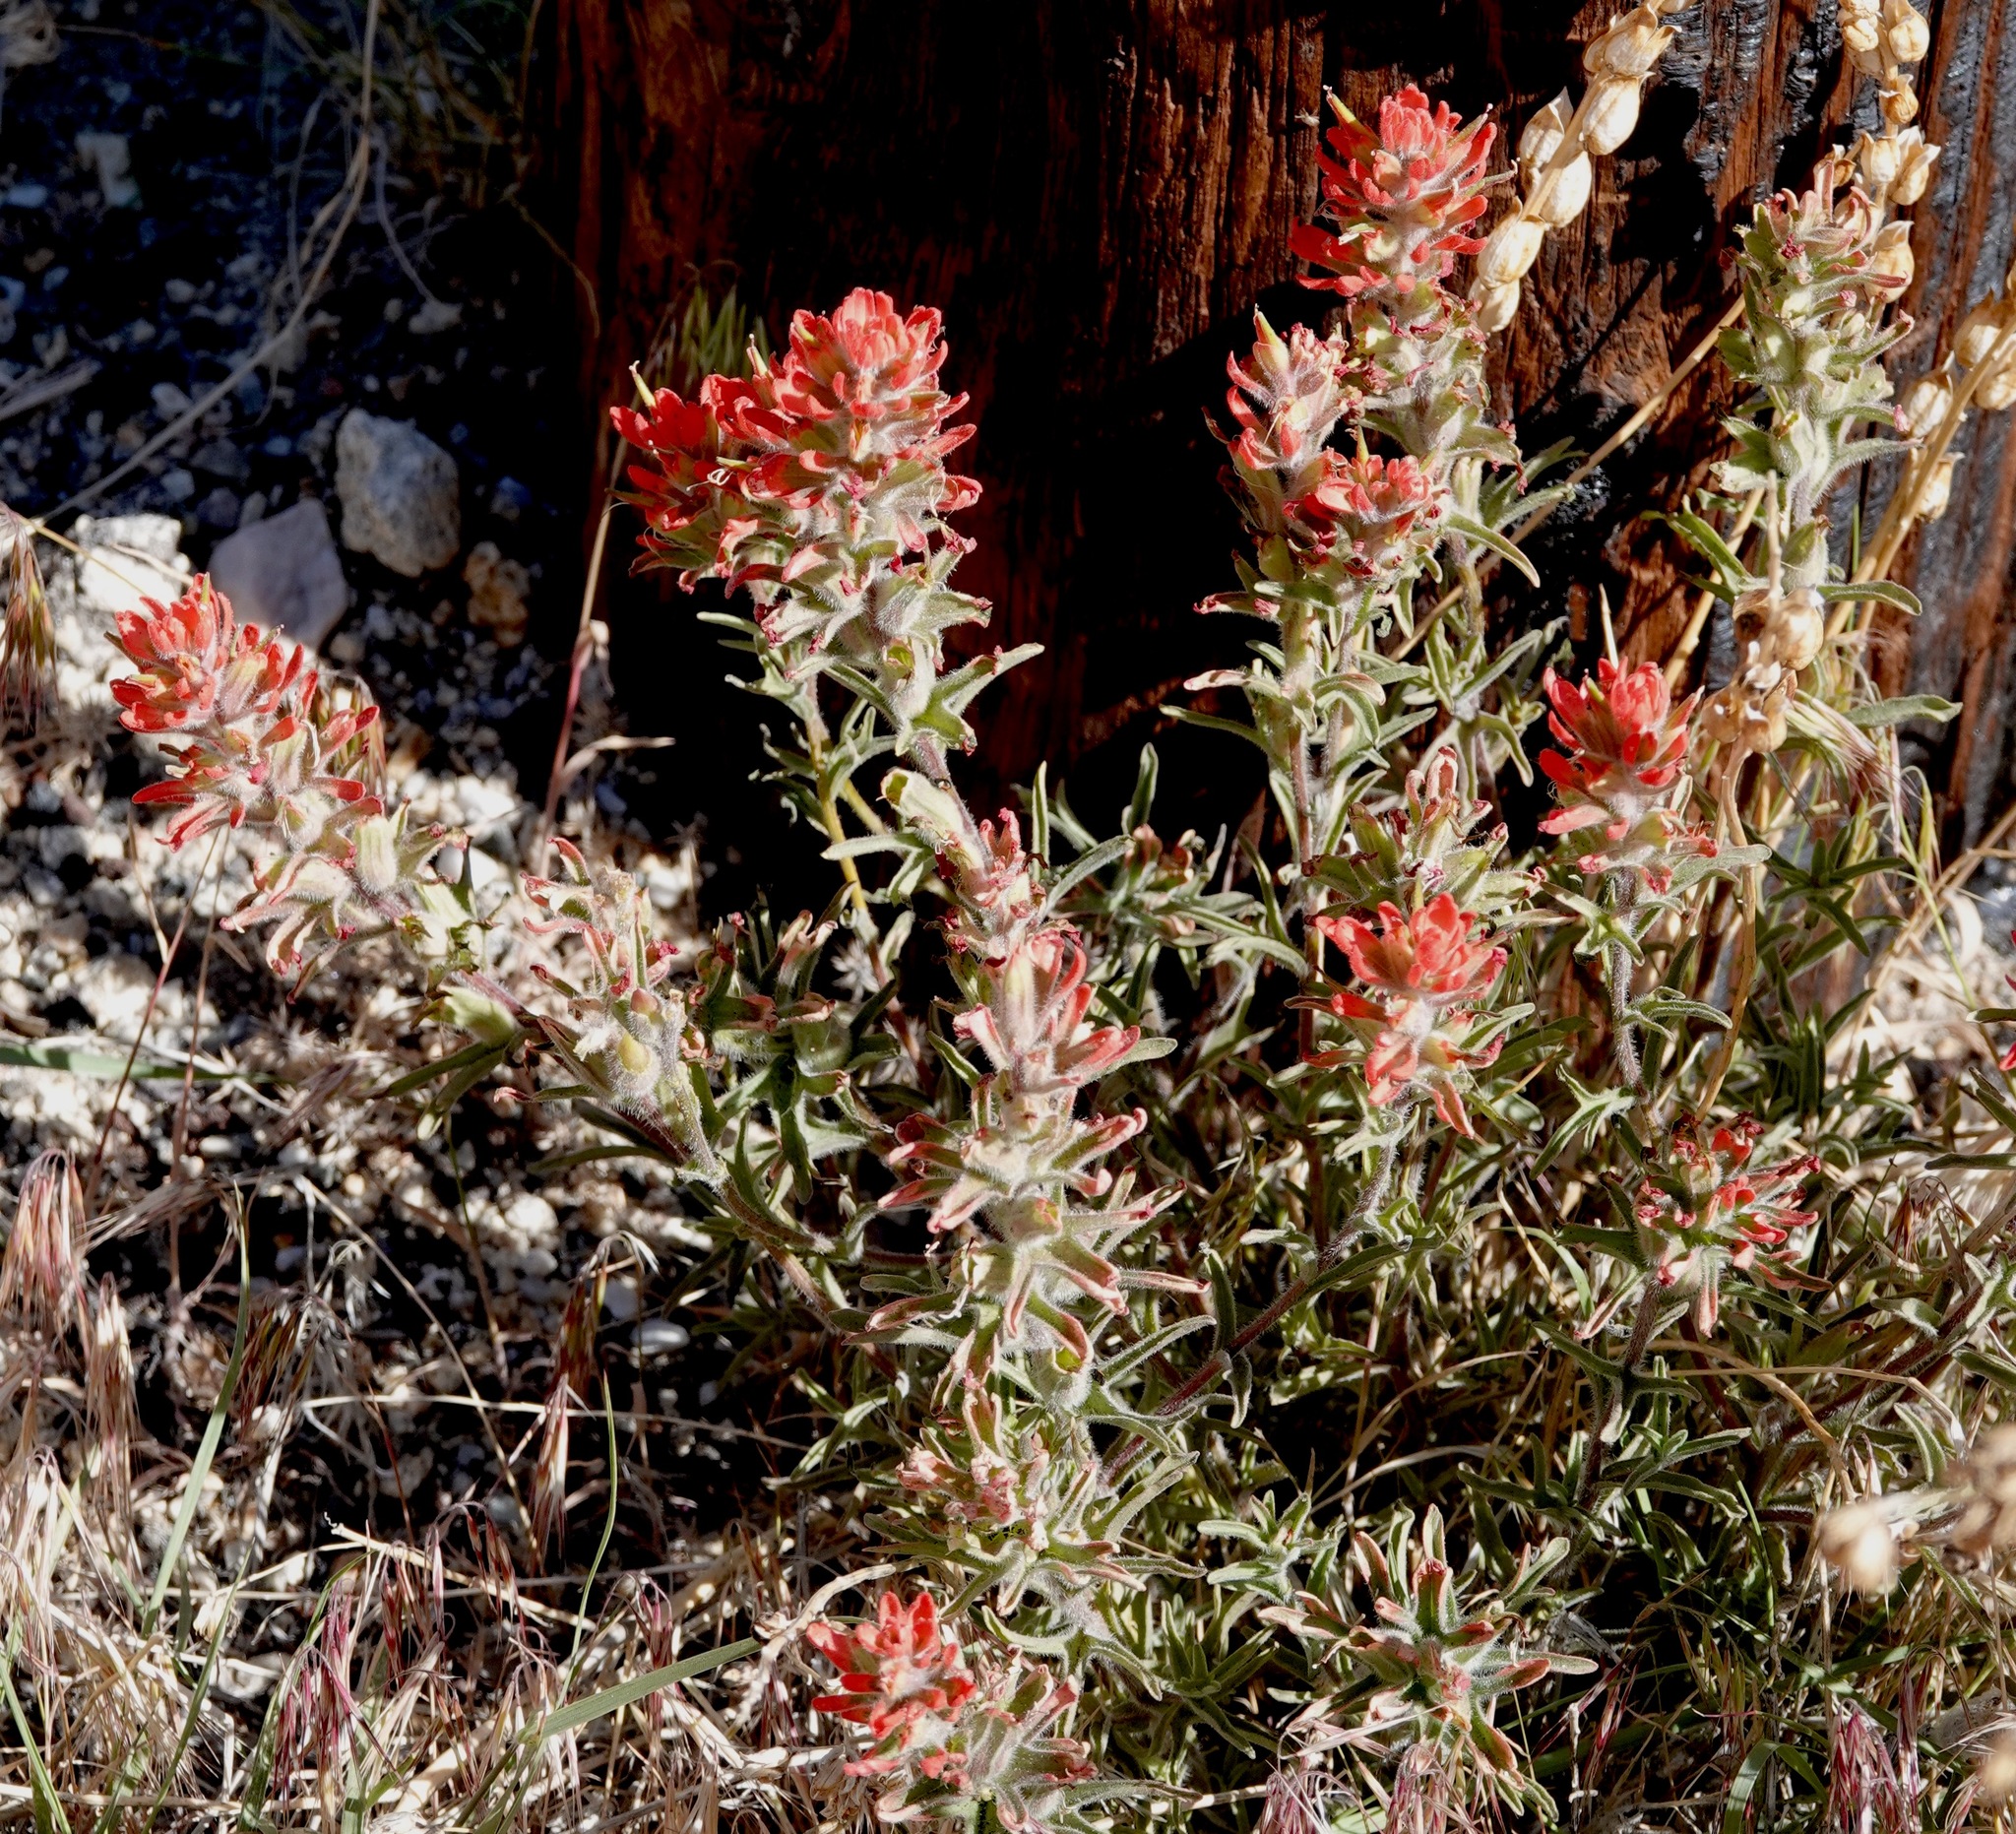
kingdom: Plantae
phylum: Tracheophyta
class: Magnoliopsida
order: Lamiales
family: Orobanchaceae
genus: Castilleja
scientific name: Castilleja chromosa
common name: Desert paintbrush
